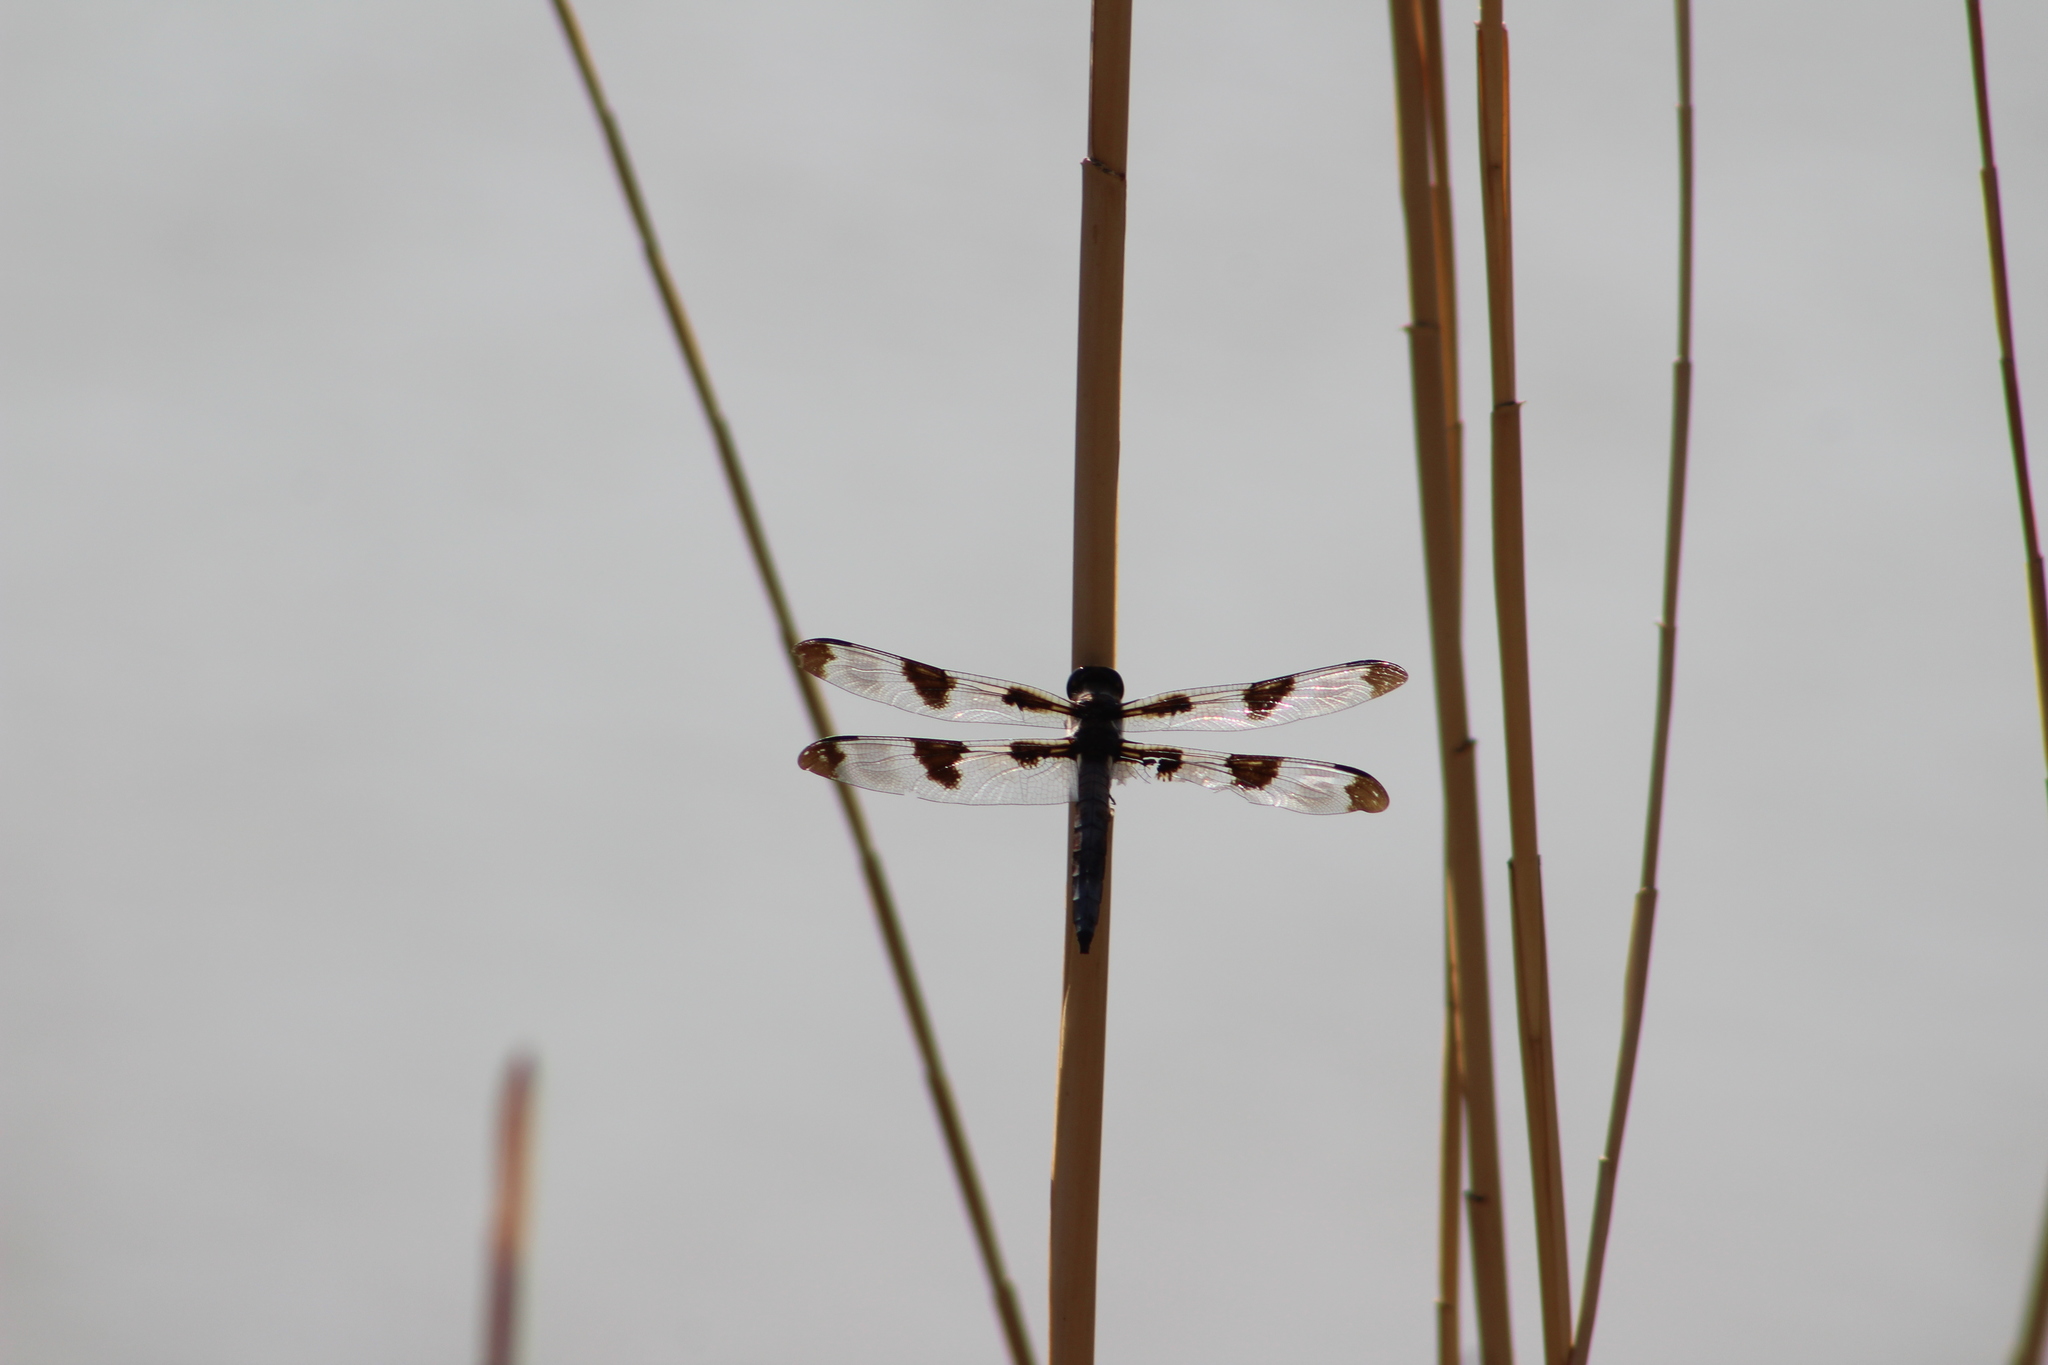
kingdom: Animalia
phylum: Arthropoda
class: Insecta
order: Odonata
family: Libellulidae
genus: Libellula
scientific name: Libellula pulchella
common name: Twelve-spotted skimmer
